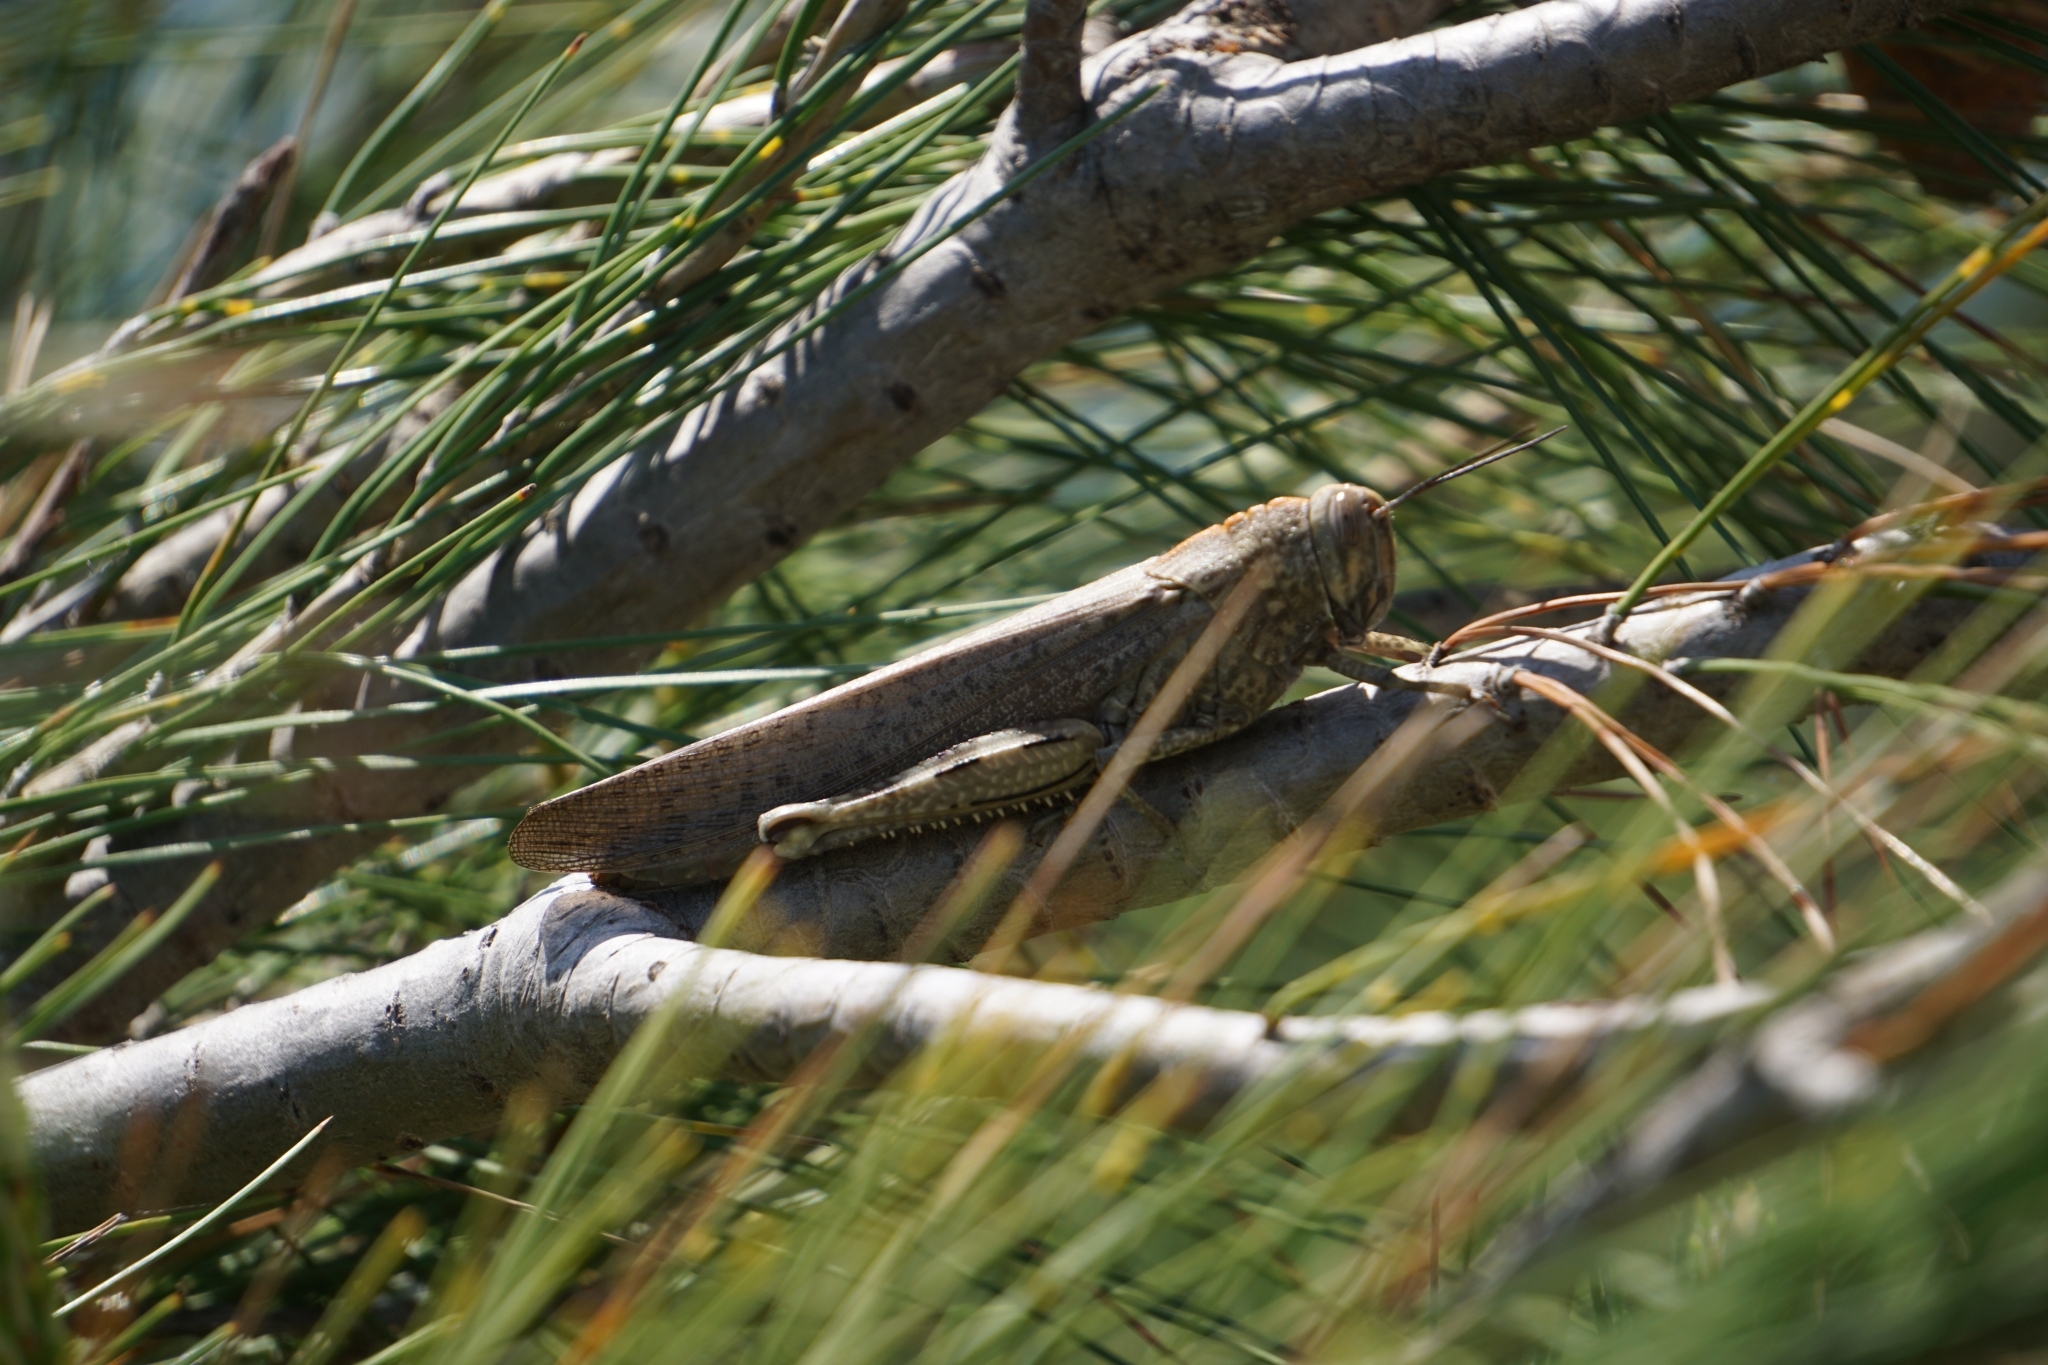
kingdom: Animalia
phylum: Arthropoda
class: Insecta
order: Orthoptera
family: Acrididae
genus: Anacridium
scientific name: Anacridium aegyptium
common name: Egyptian grasshopper
